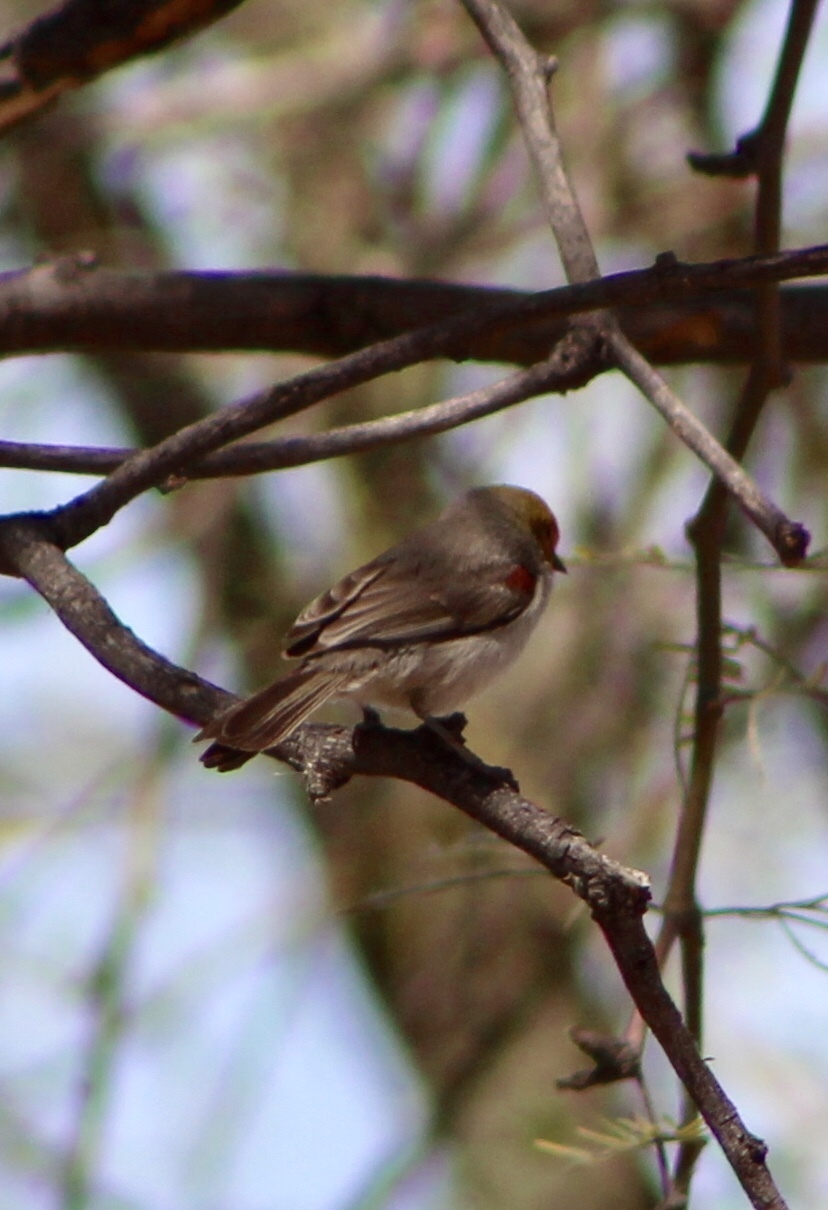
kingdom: Animalia
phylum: Chordata
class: Aves
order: Passeriformes
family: Remizidae
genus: Auriparus
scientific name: Auriparus flaviceps
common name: Verdin
